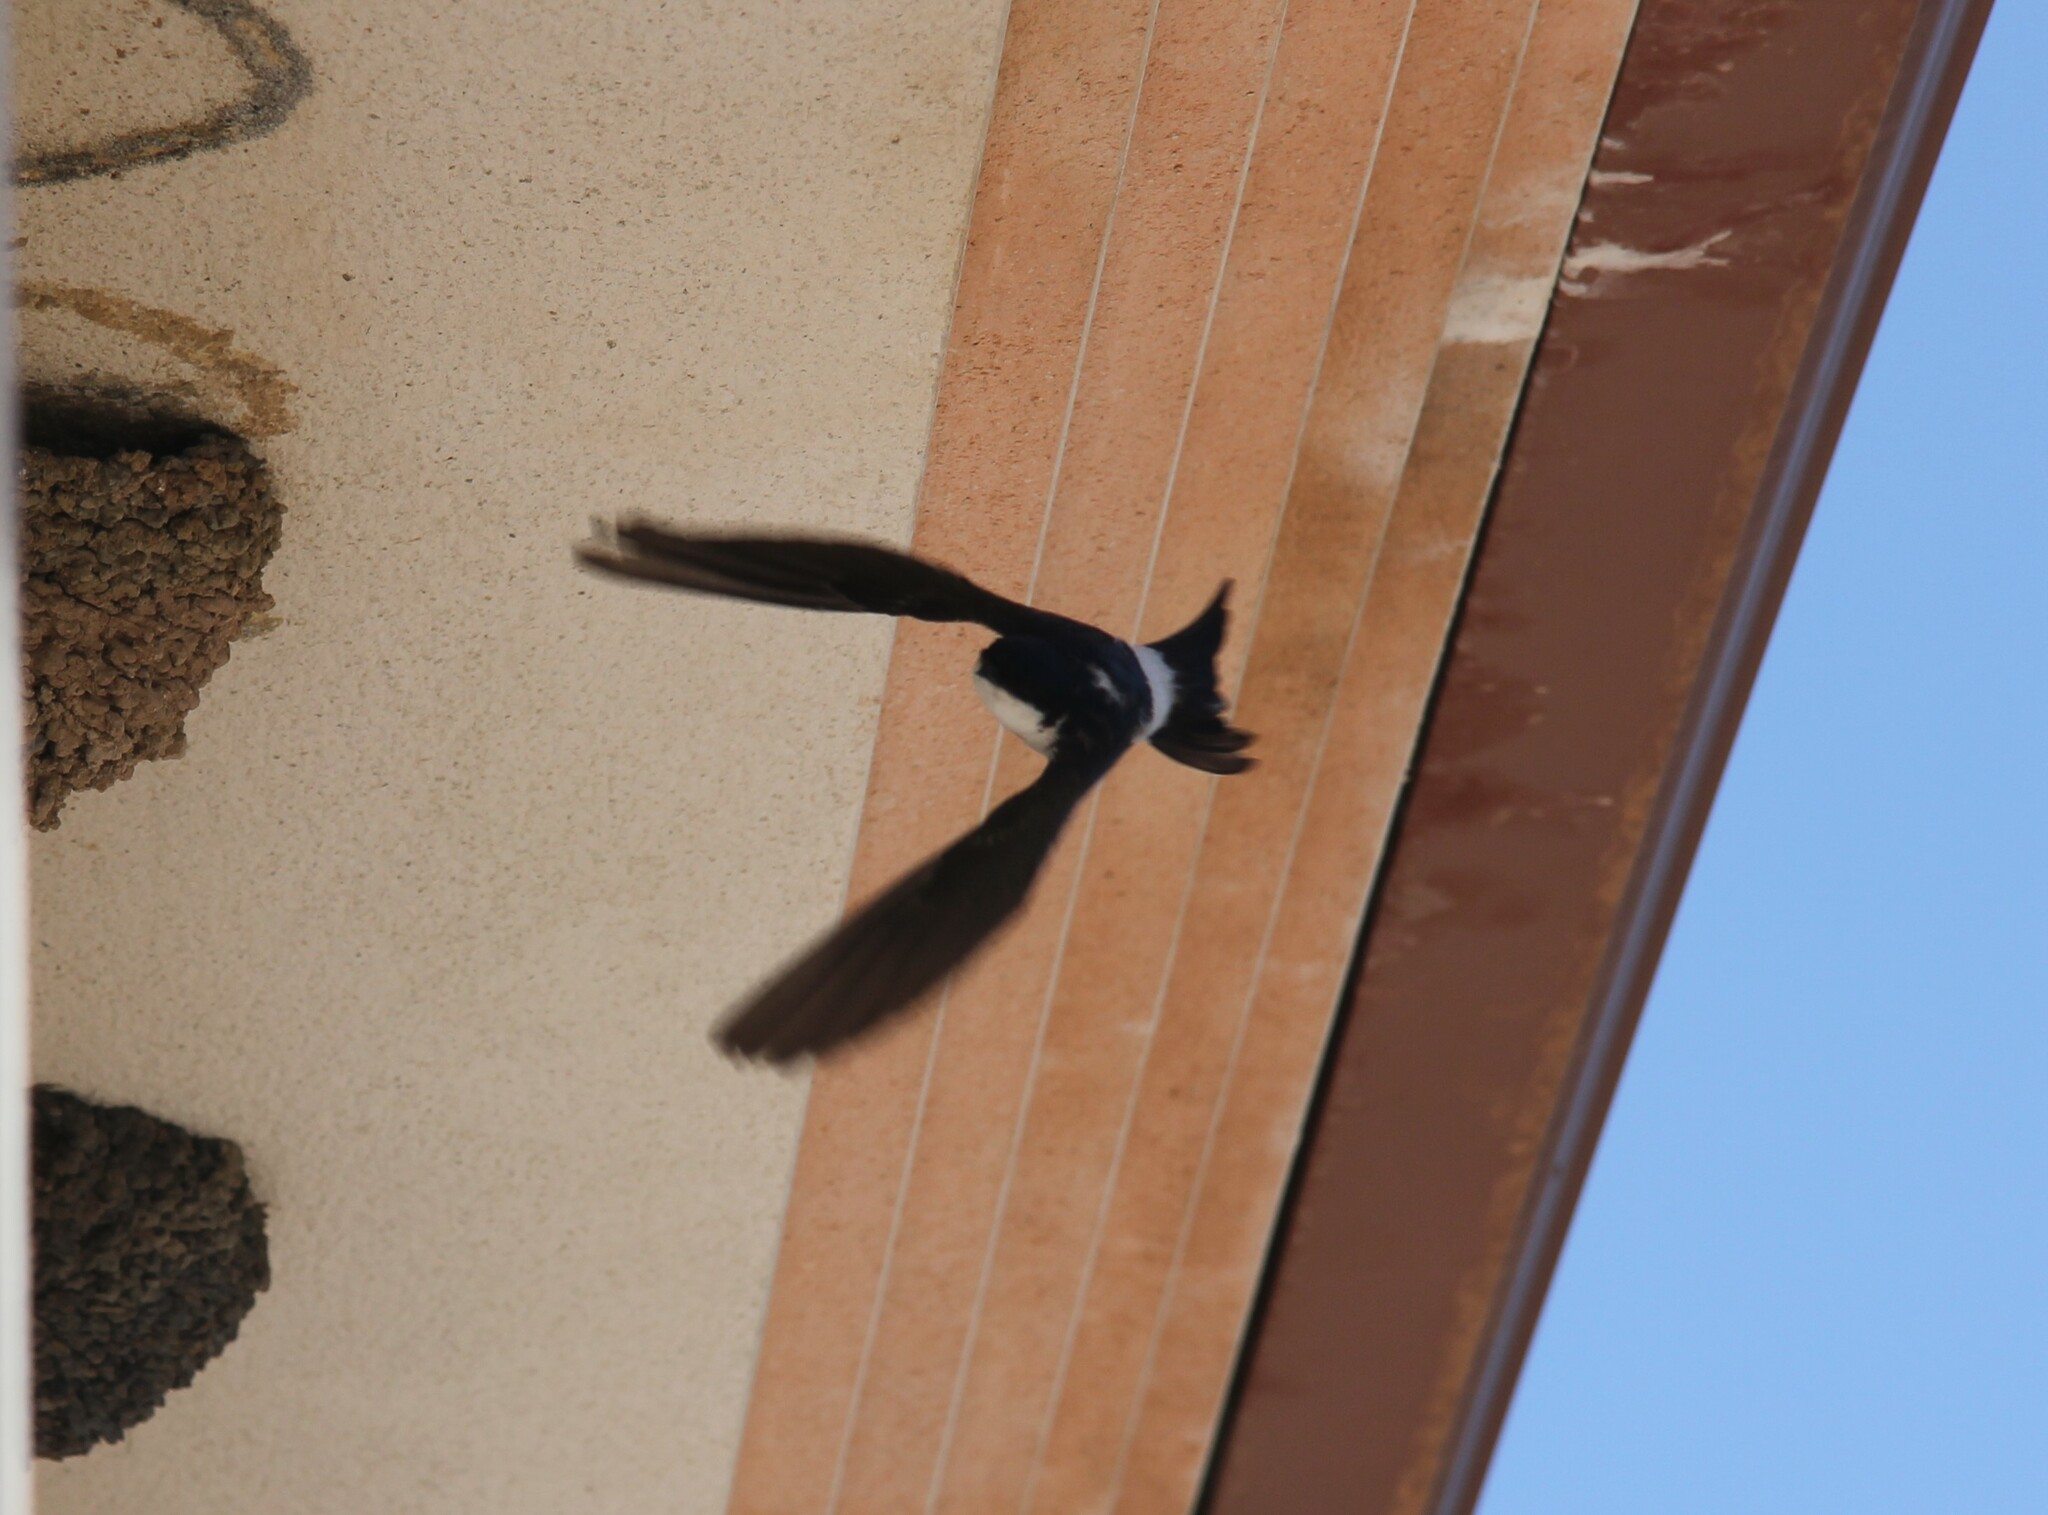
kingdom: Animalia
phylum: Chordata
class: Aves
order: Passeriformes
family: Hirundinidae
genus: Delichon
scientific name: Delichon urbicum
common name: Common house martin
